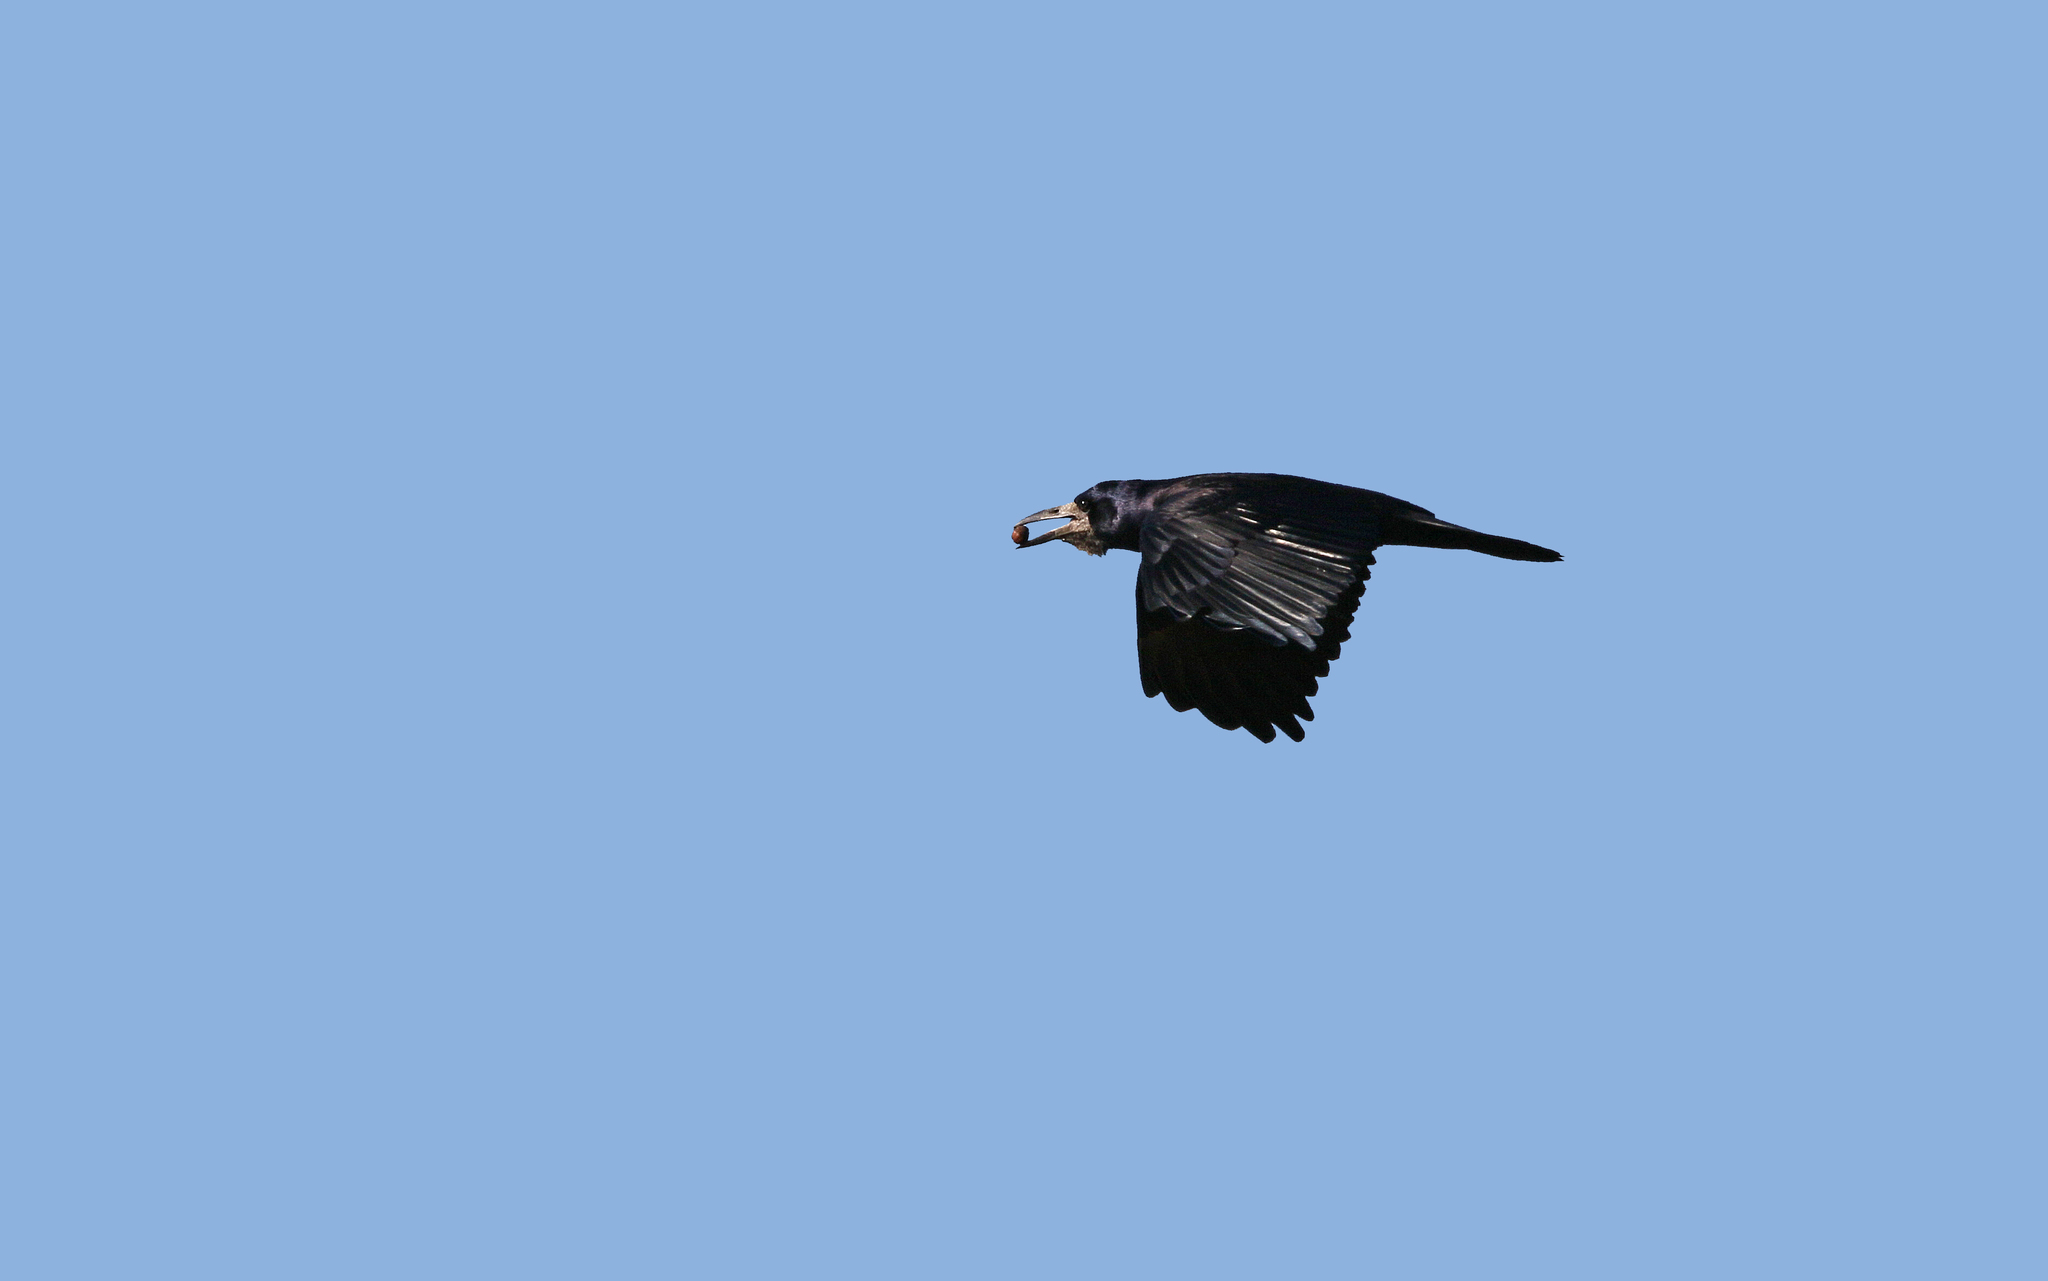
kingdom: Animalia
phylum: Chordata
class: Aves
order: Passeriformes
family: Corvidae
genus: Corvus
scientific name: Corvus frugilegus
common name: Rook
